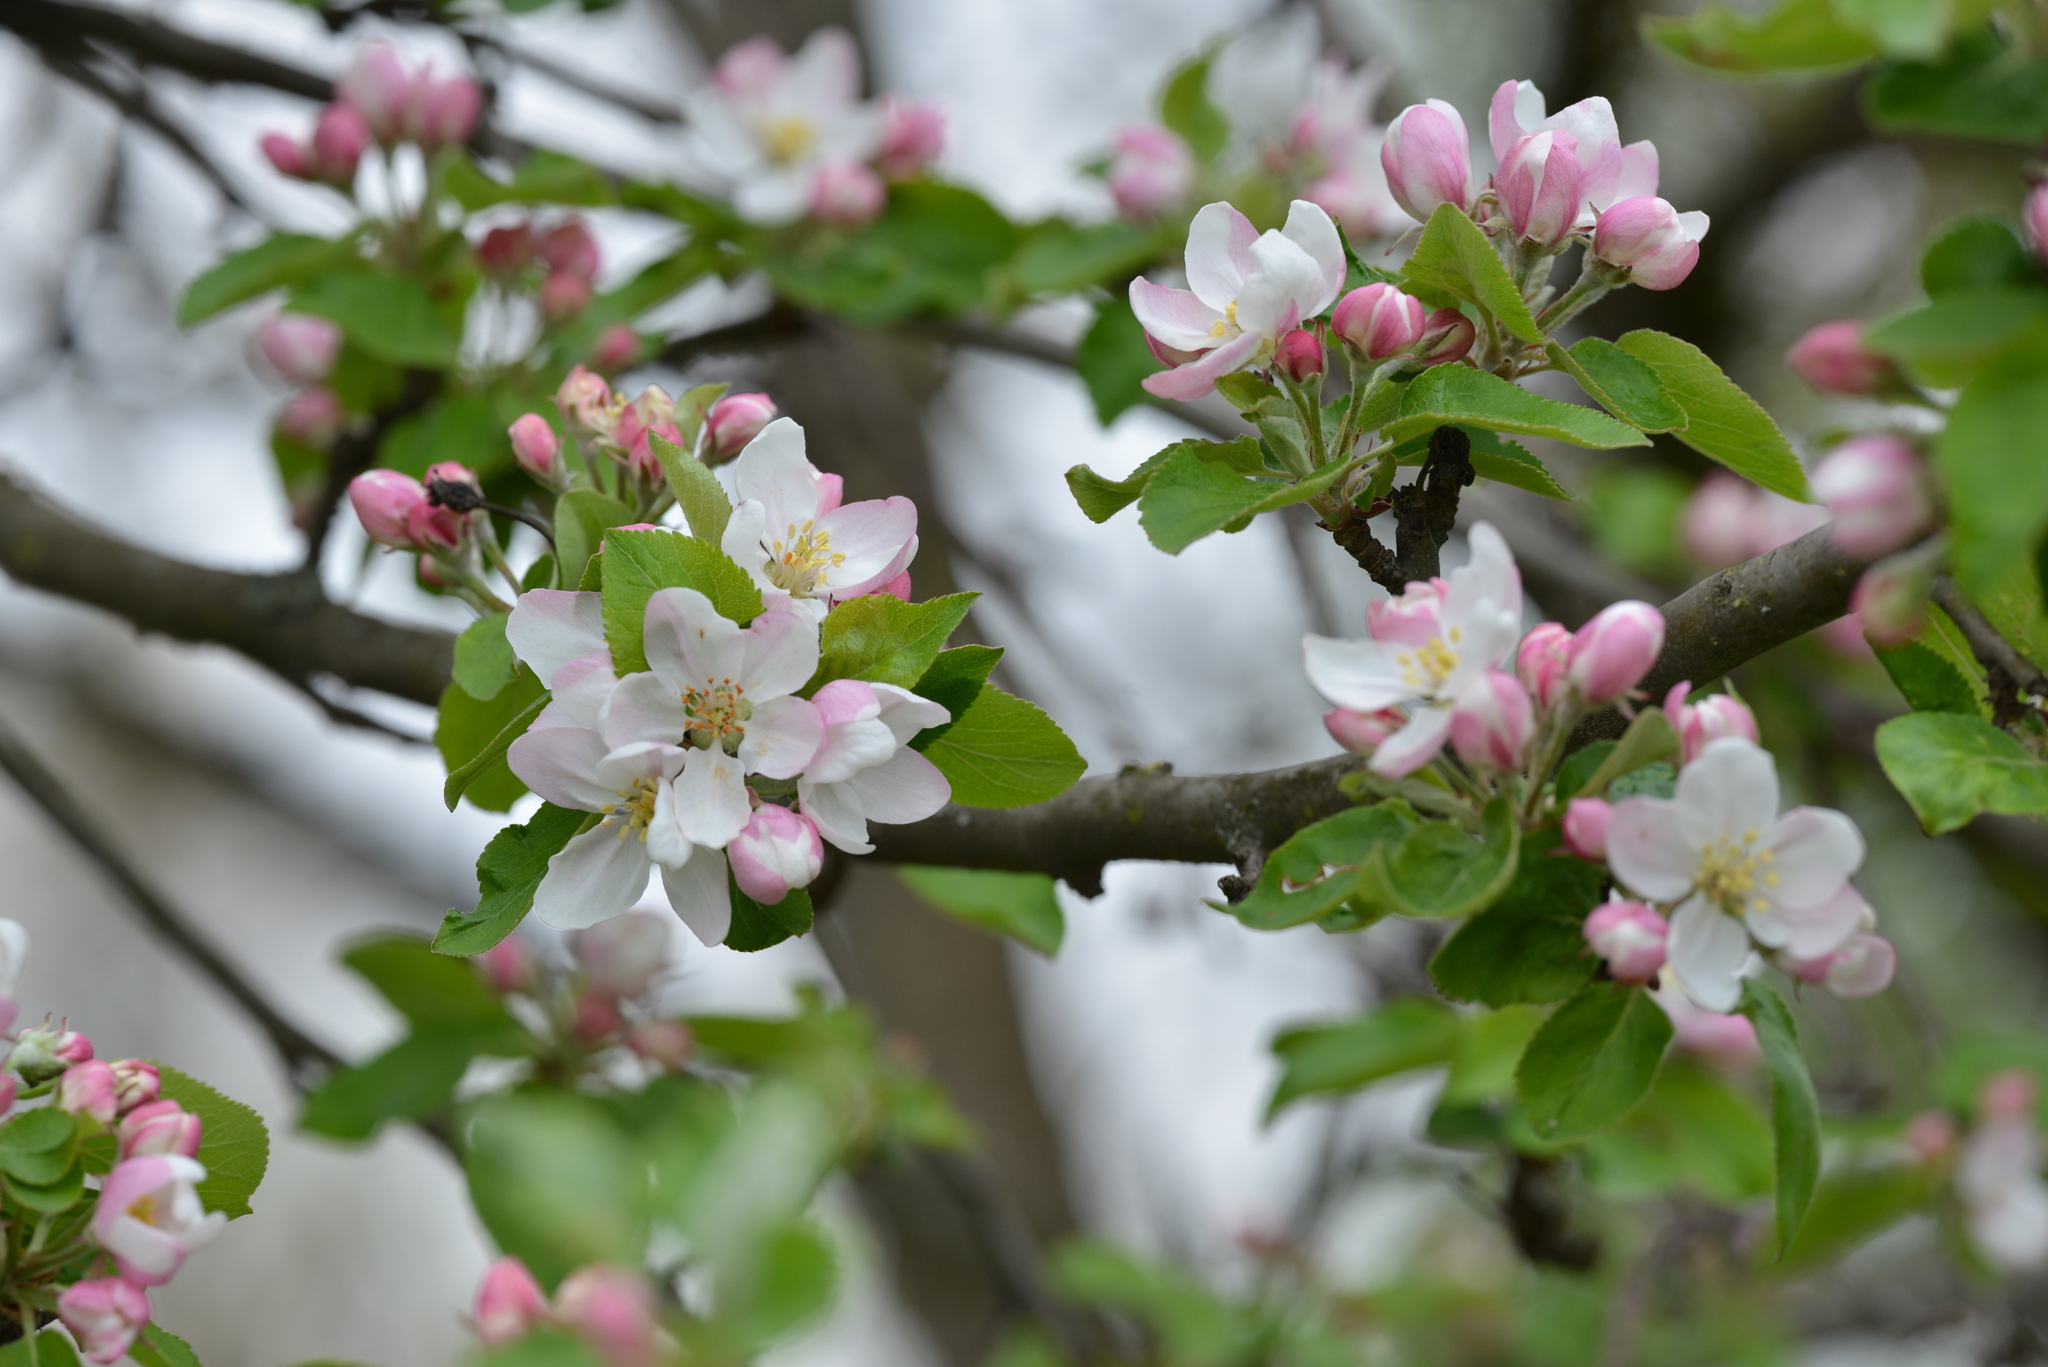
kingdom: Plantae
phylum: Tracheophyta
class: Magnoliopsida
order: Rosales
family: Rosaceae
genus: Malus
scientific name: Malus domestica
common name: Apple
